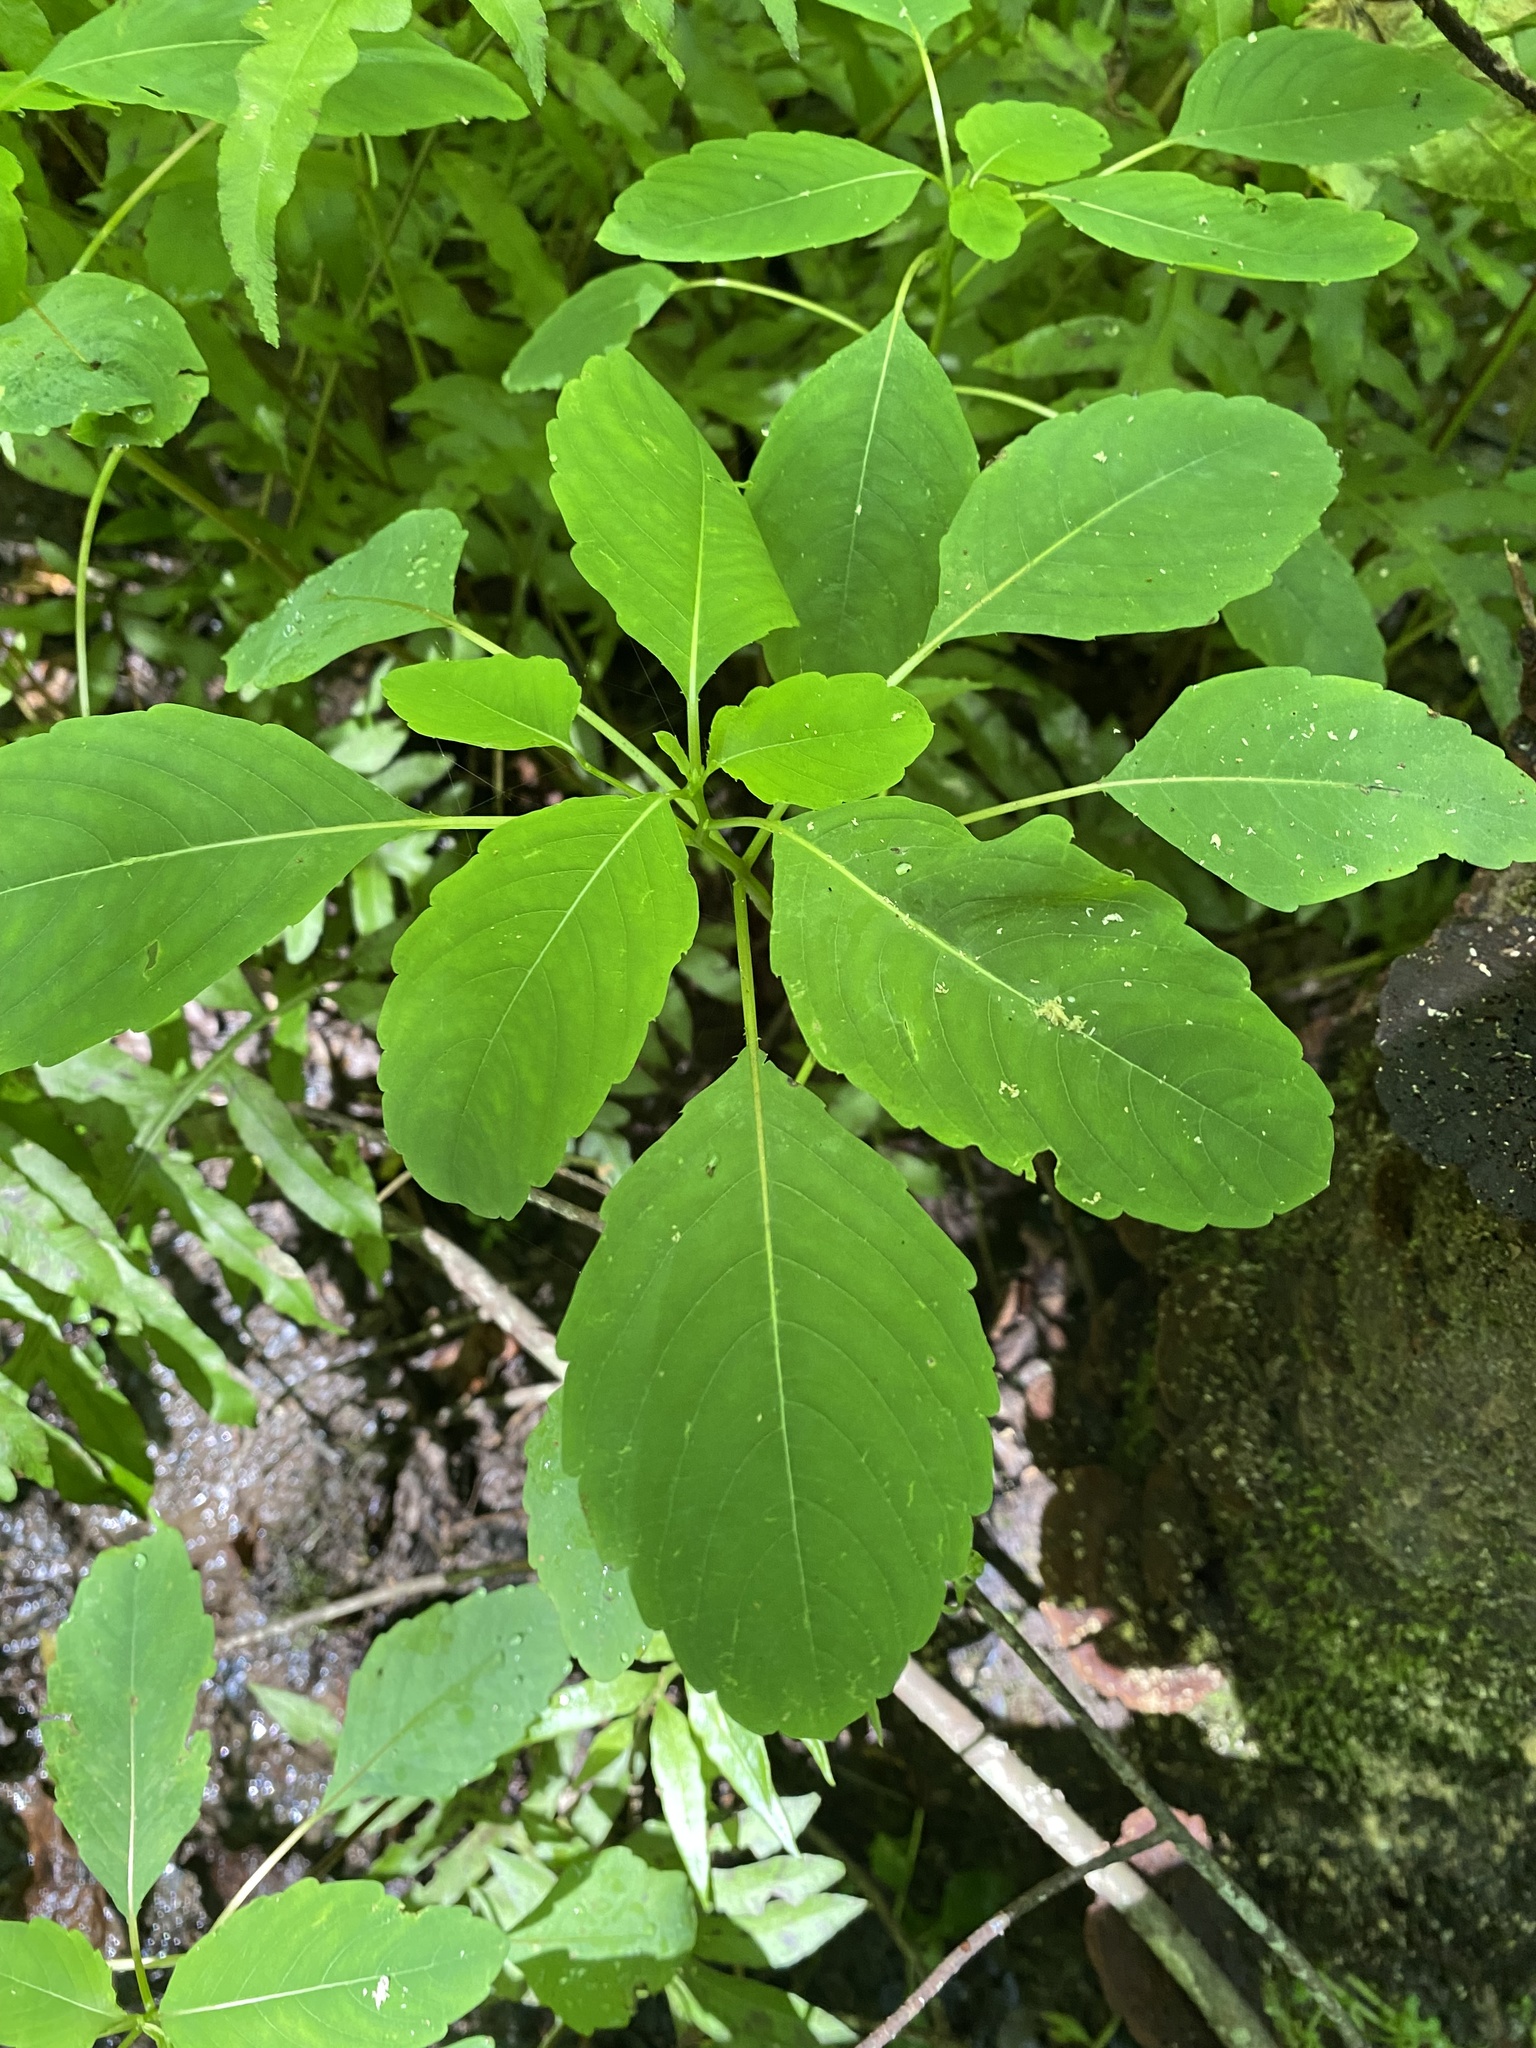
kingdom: Plantae
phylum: Tracheophyta
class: Magnoliopsida
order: Ericales
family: Balsaminaceae
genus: Impatiens
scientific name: Impatiens capensis
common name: Orange balsam
